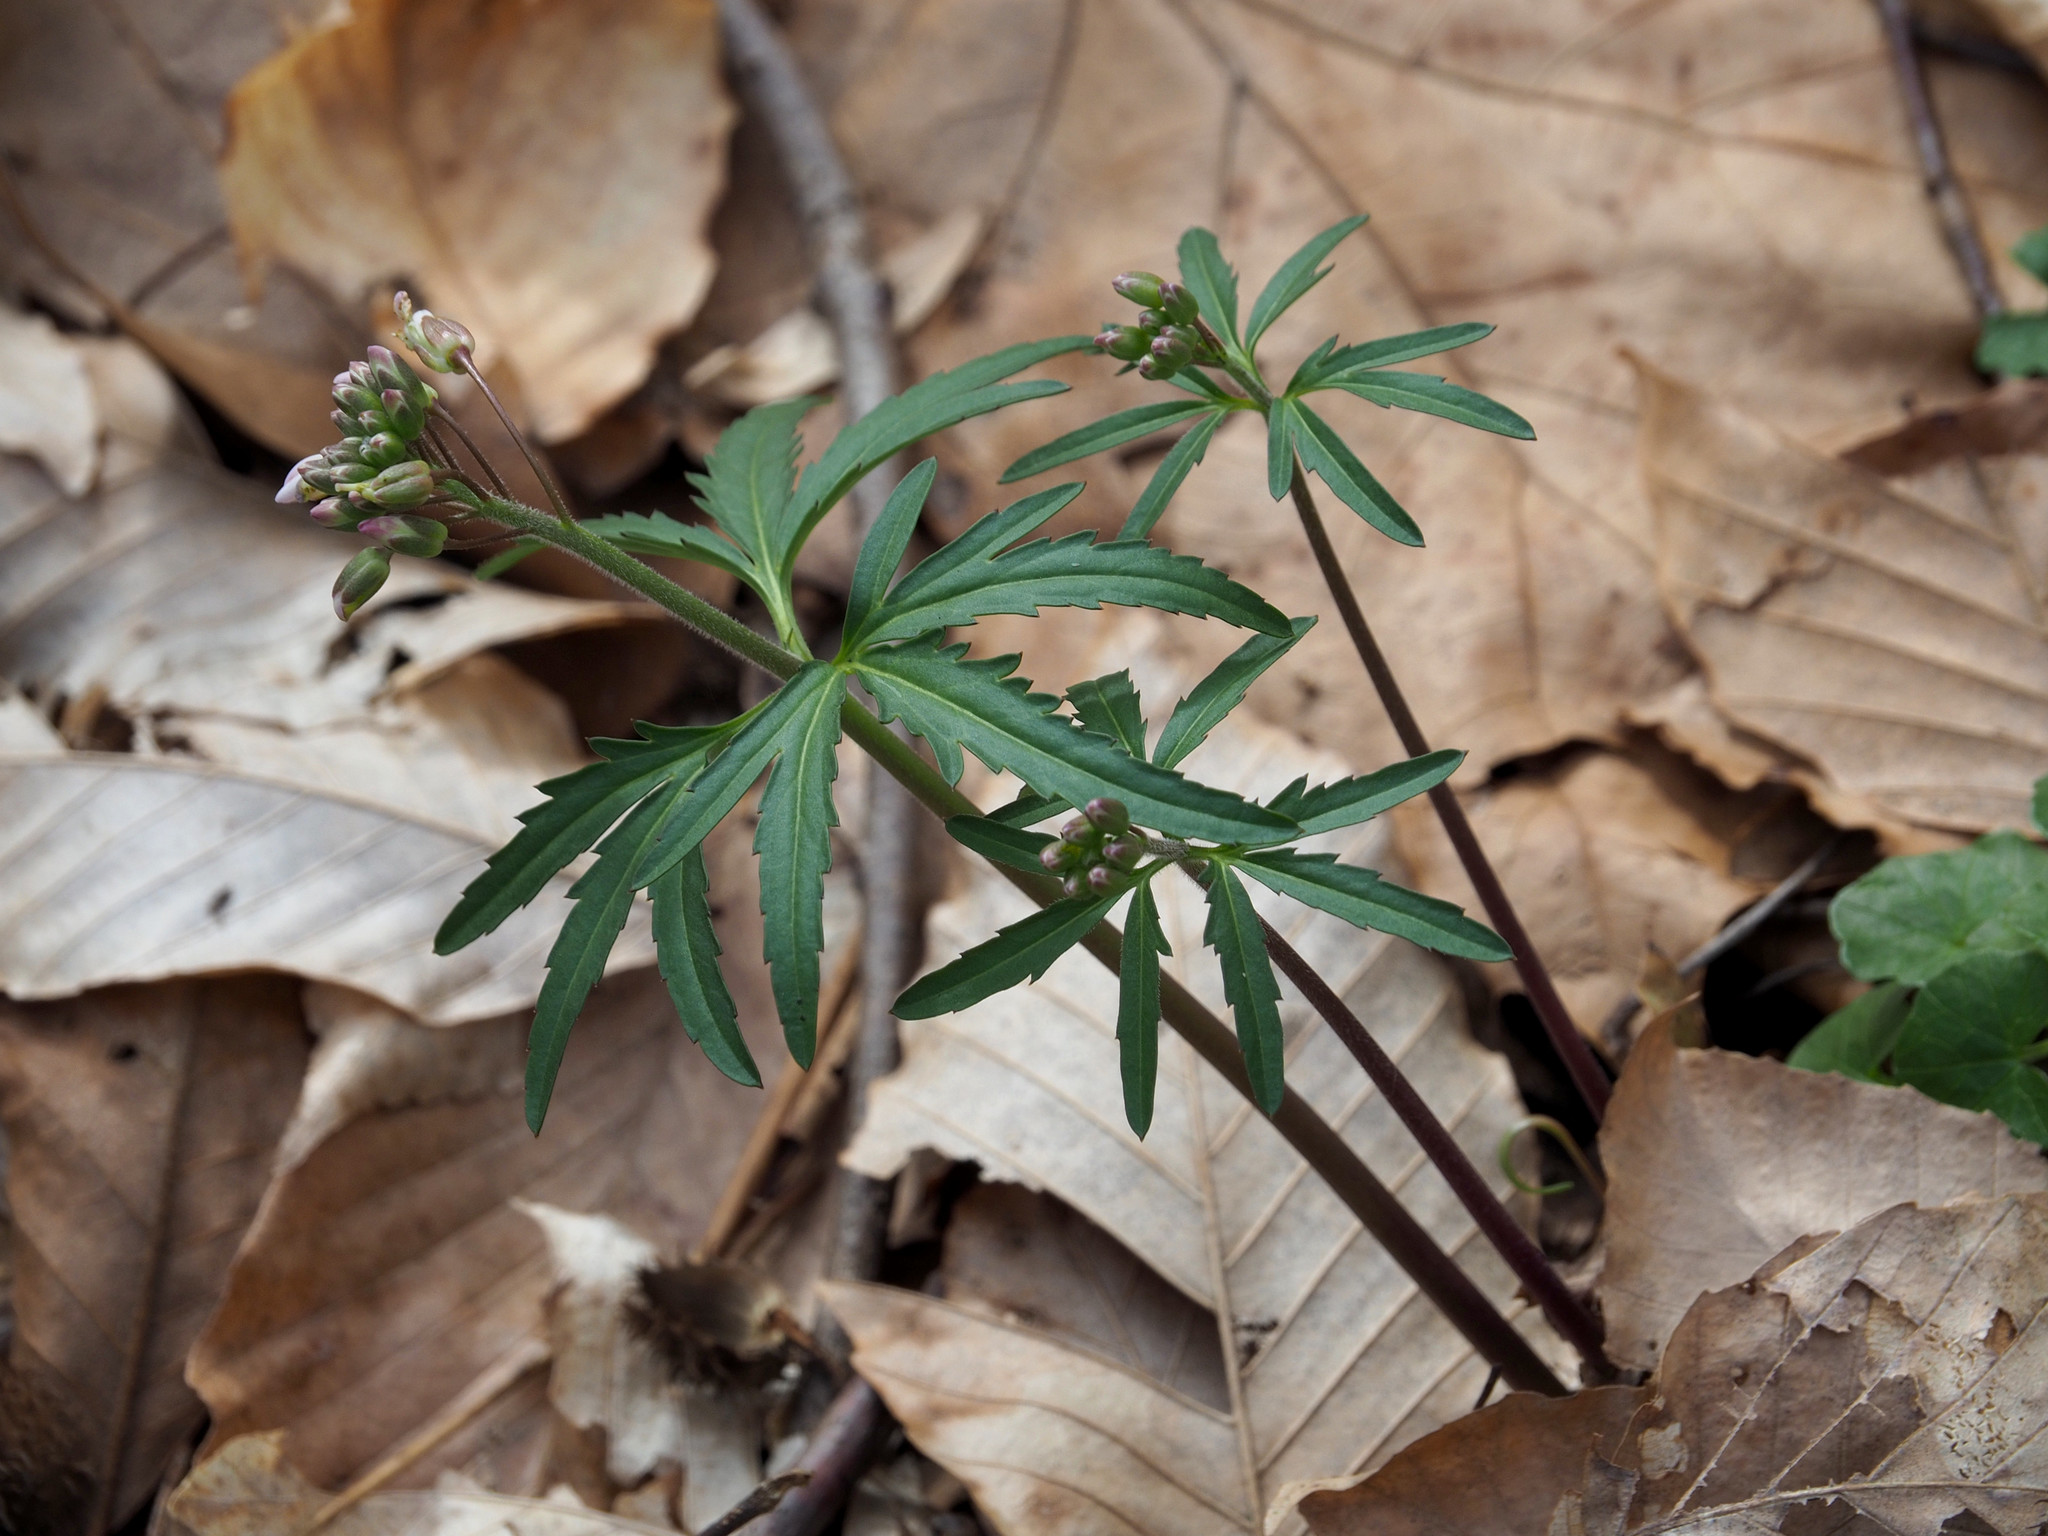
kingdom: Plantae
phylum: Tracheophyta
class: Magnoliopsida
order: Brassicales
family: Brassicaceae
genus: Cardamine
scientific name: Cardamine concatenata
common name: Cut-leaf toothcup
